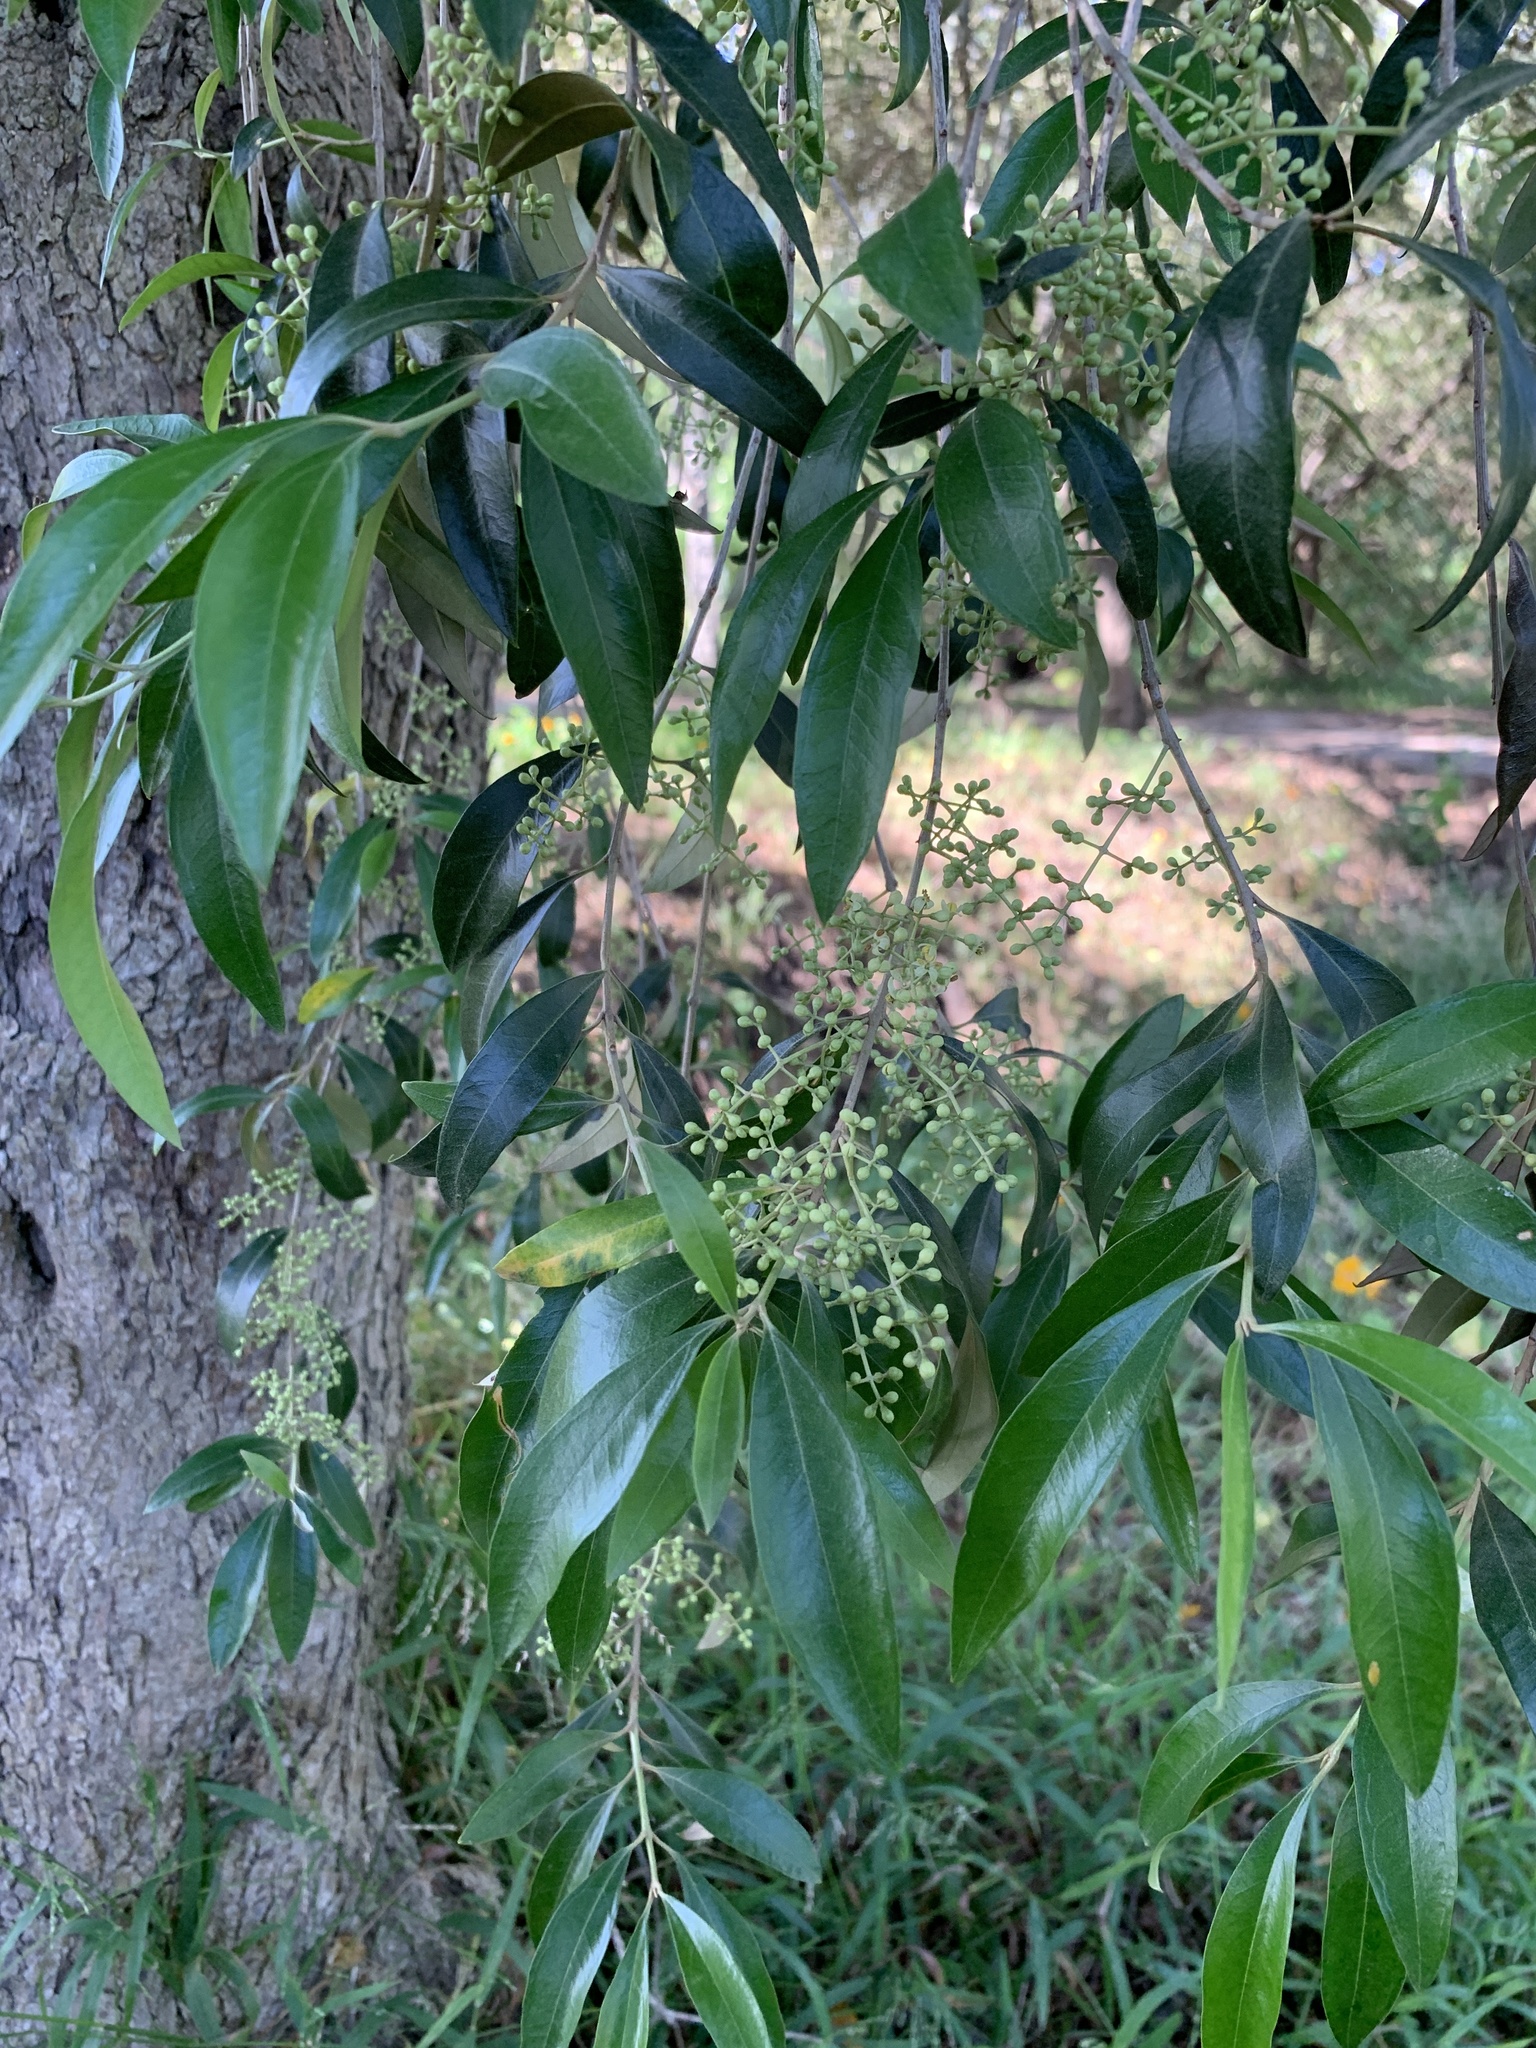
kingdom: Plantae
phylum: Tracheophyta
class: Magnoliopsida
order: Lamiales
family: Oleaceae
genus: Olea
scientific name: Olea europaea
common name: Olive
